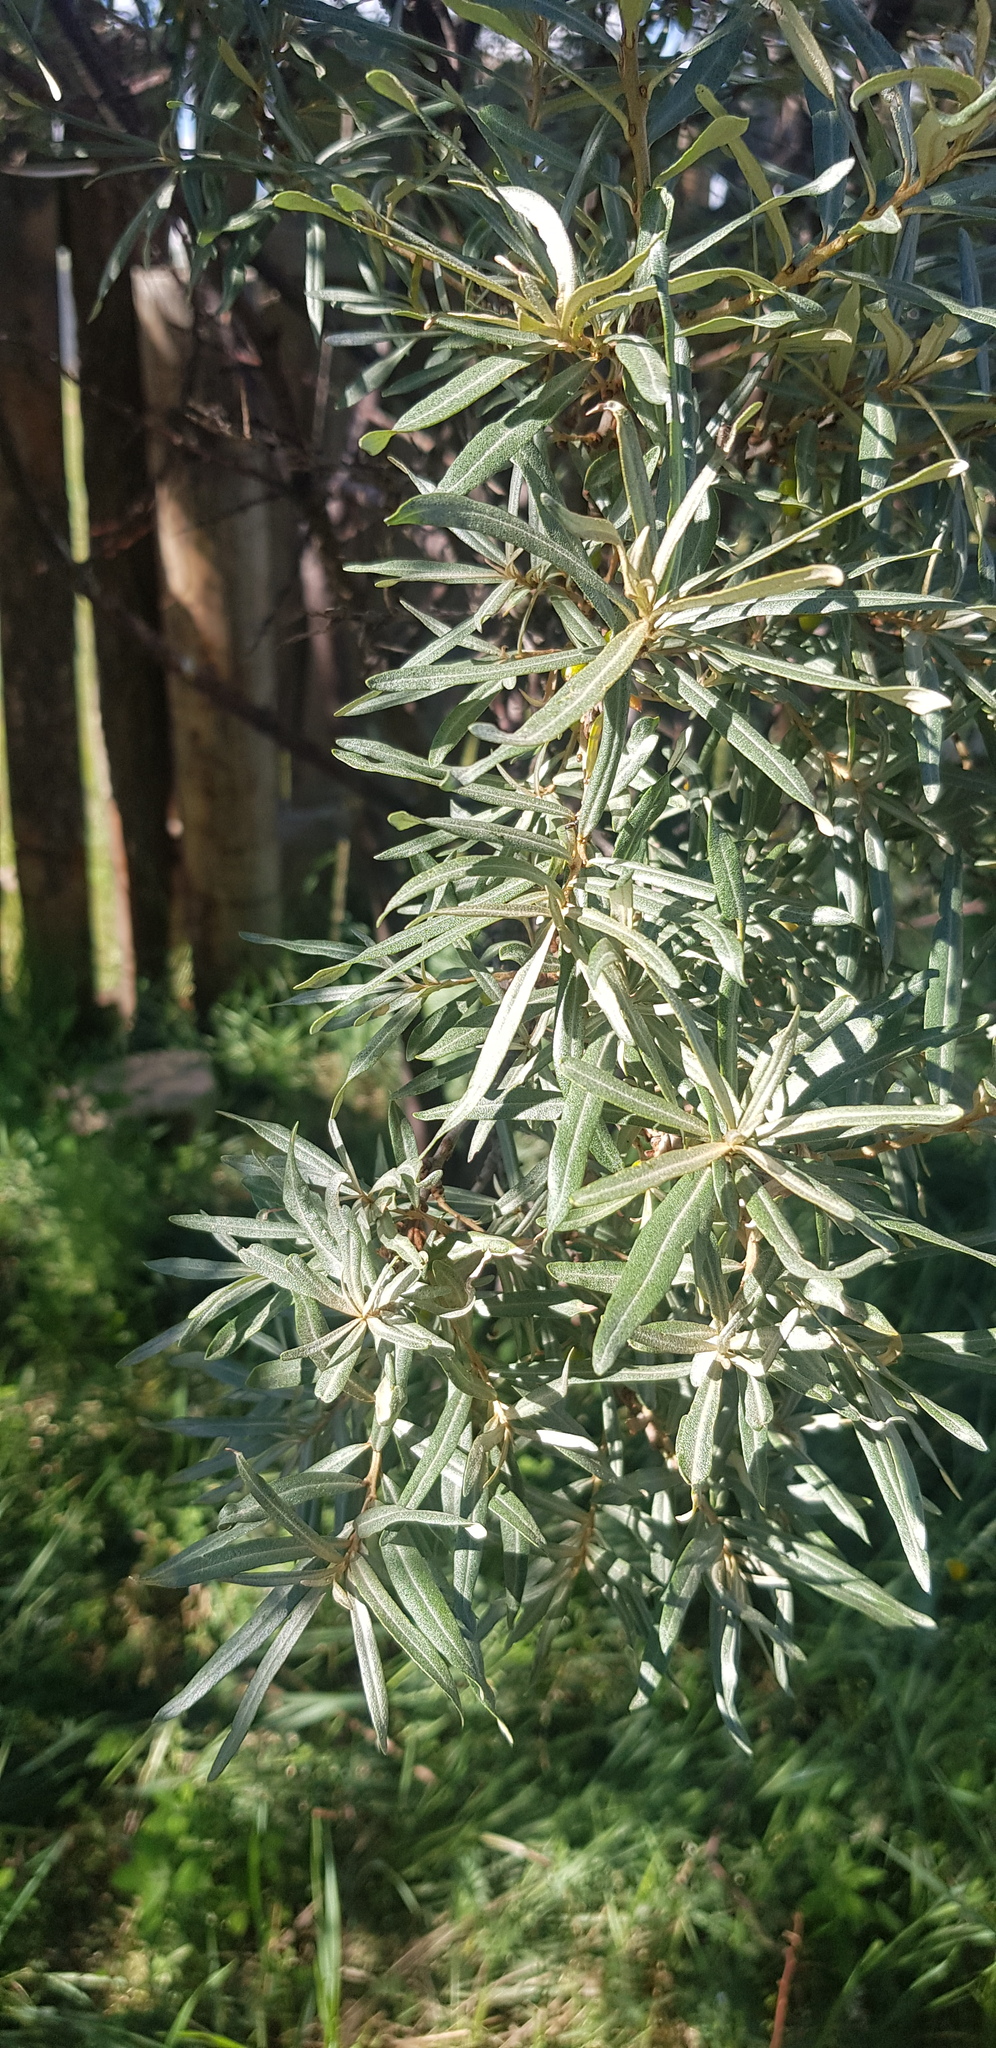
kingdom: Plantae
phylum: Tracheophyta
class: Magnoliopsida
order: Rosales
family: Elaeagnaceae
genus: Hippophae
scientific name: Hippophae rhamnoides
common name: Sea-buckthorn
